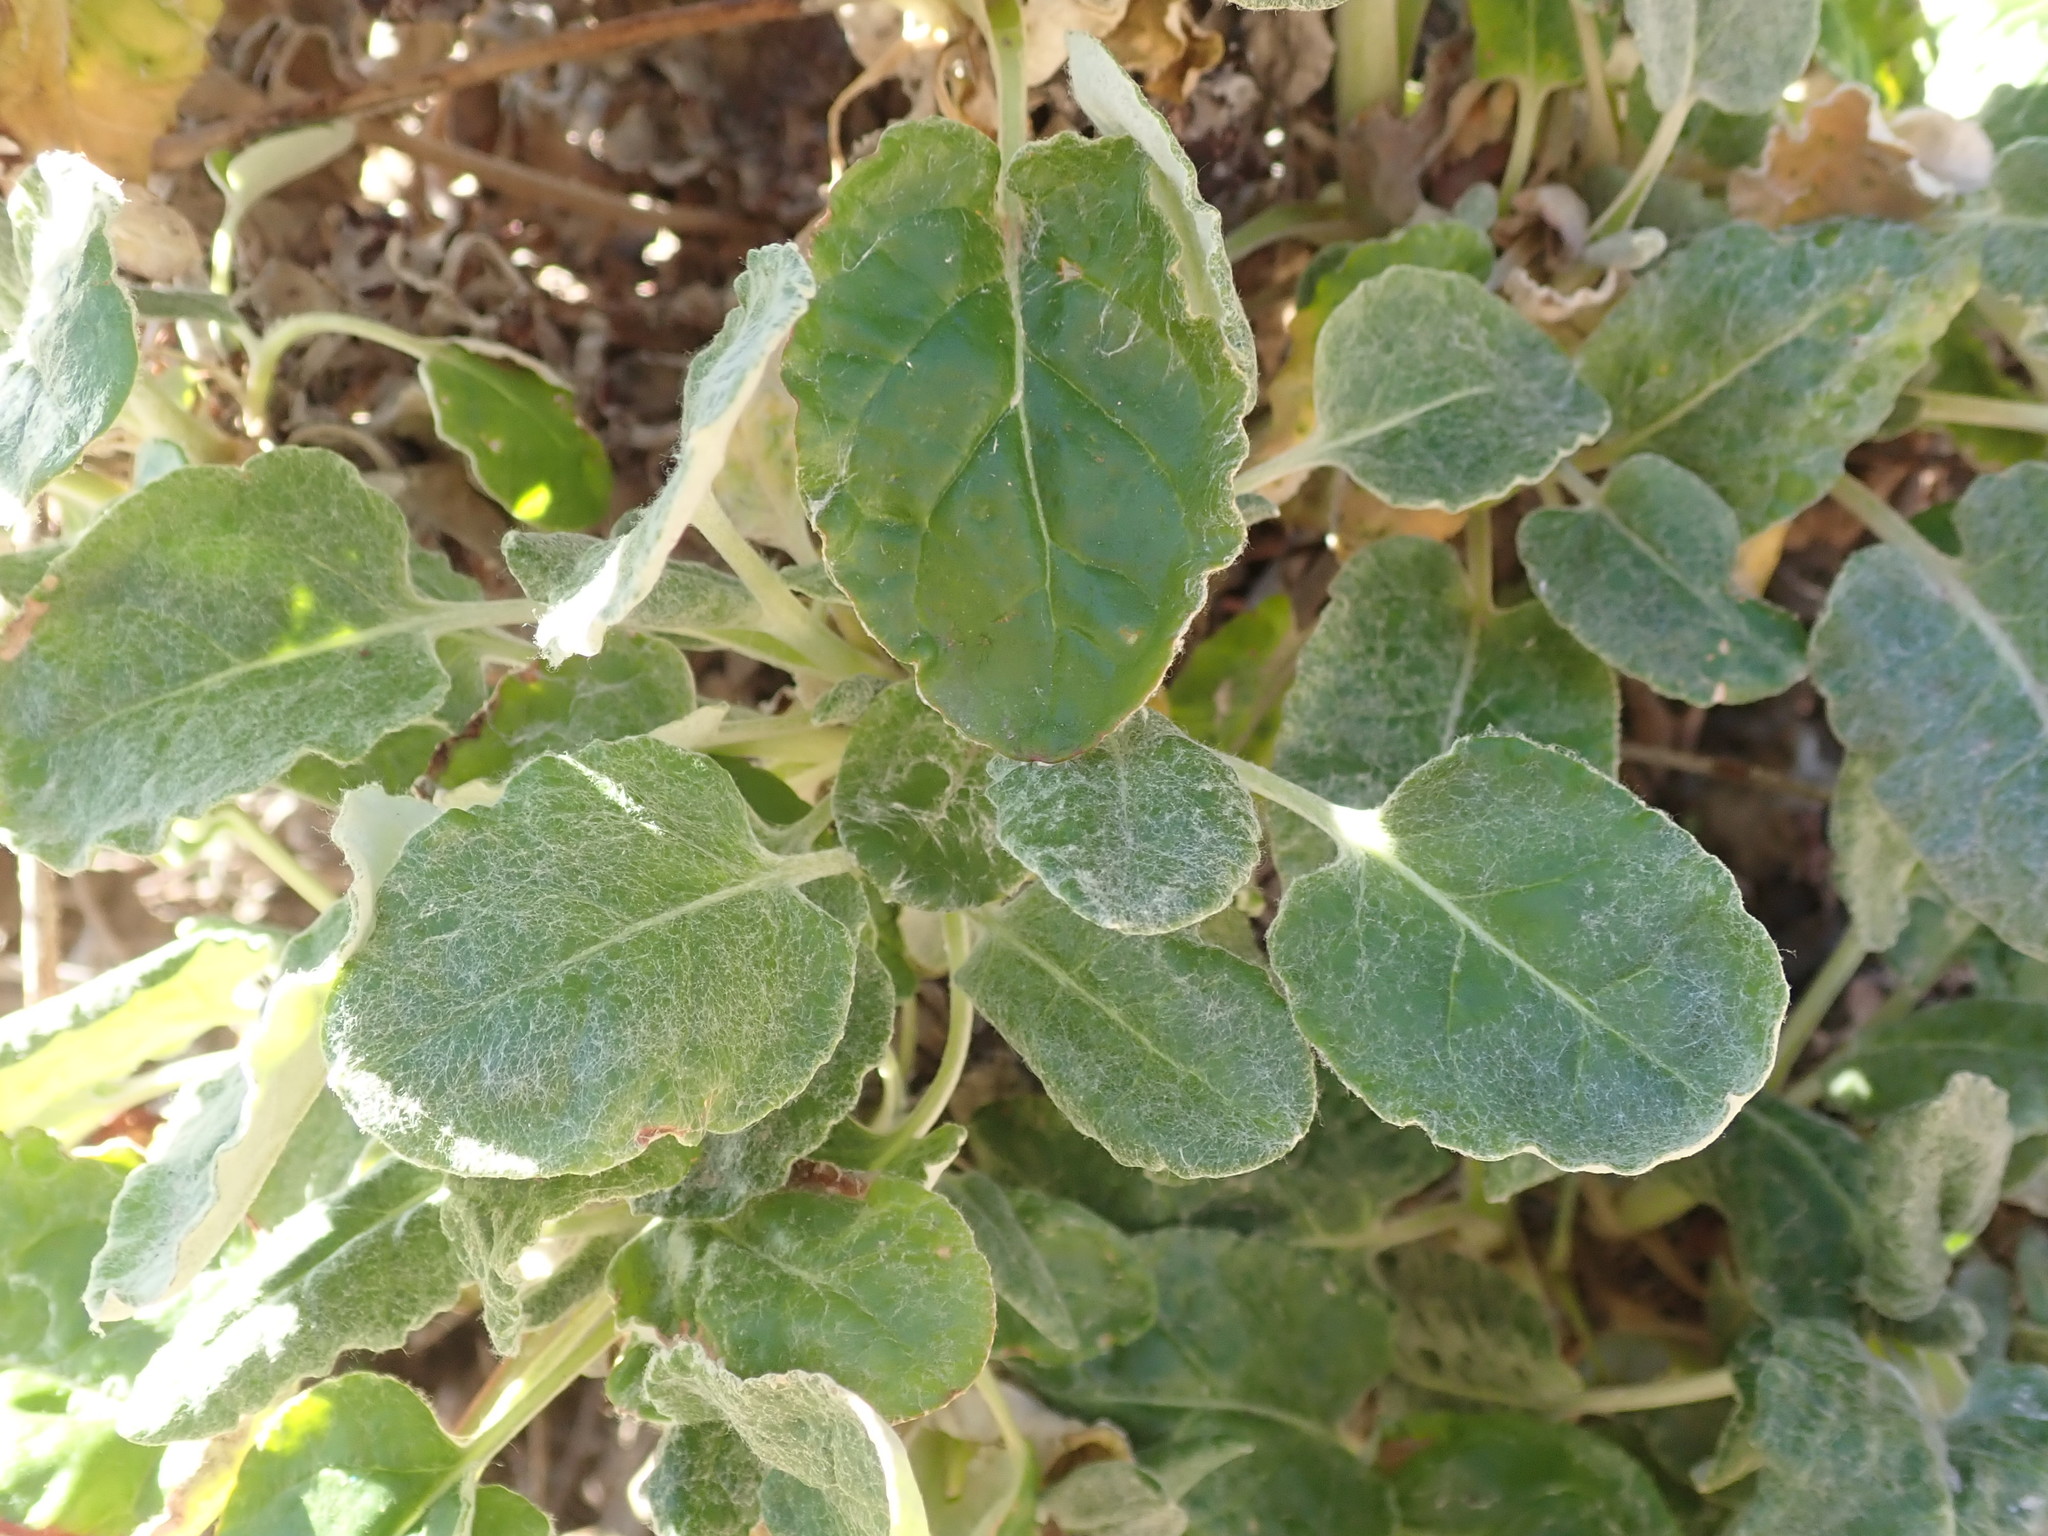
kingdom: Plantae
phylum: Tracheophyta
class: Magnoliopsida
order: Caryophyllales
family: Polygonaceae
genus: Eriogonum
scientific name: Eriogonum latifolium
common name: Seaside wild buckwheat
